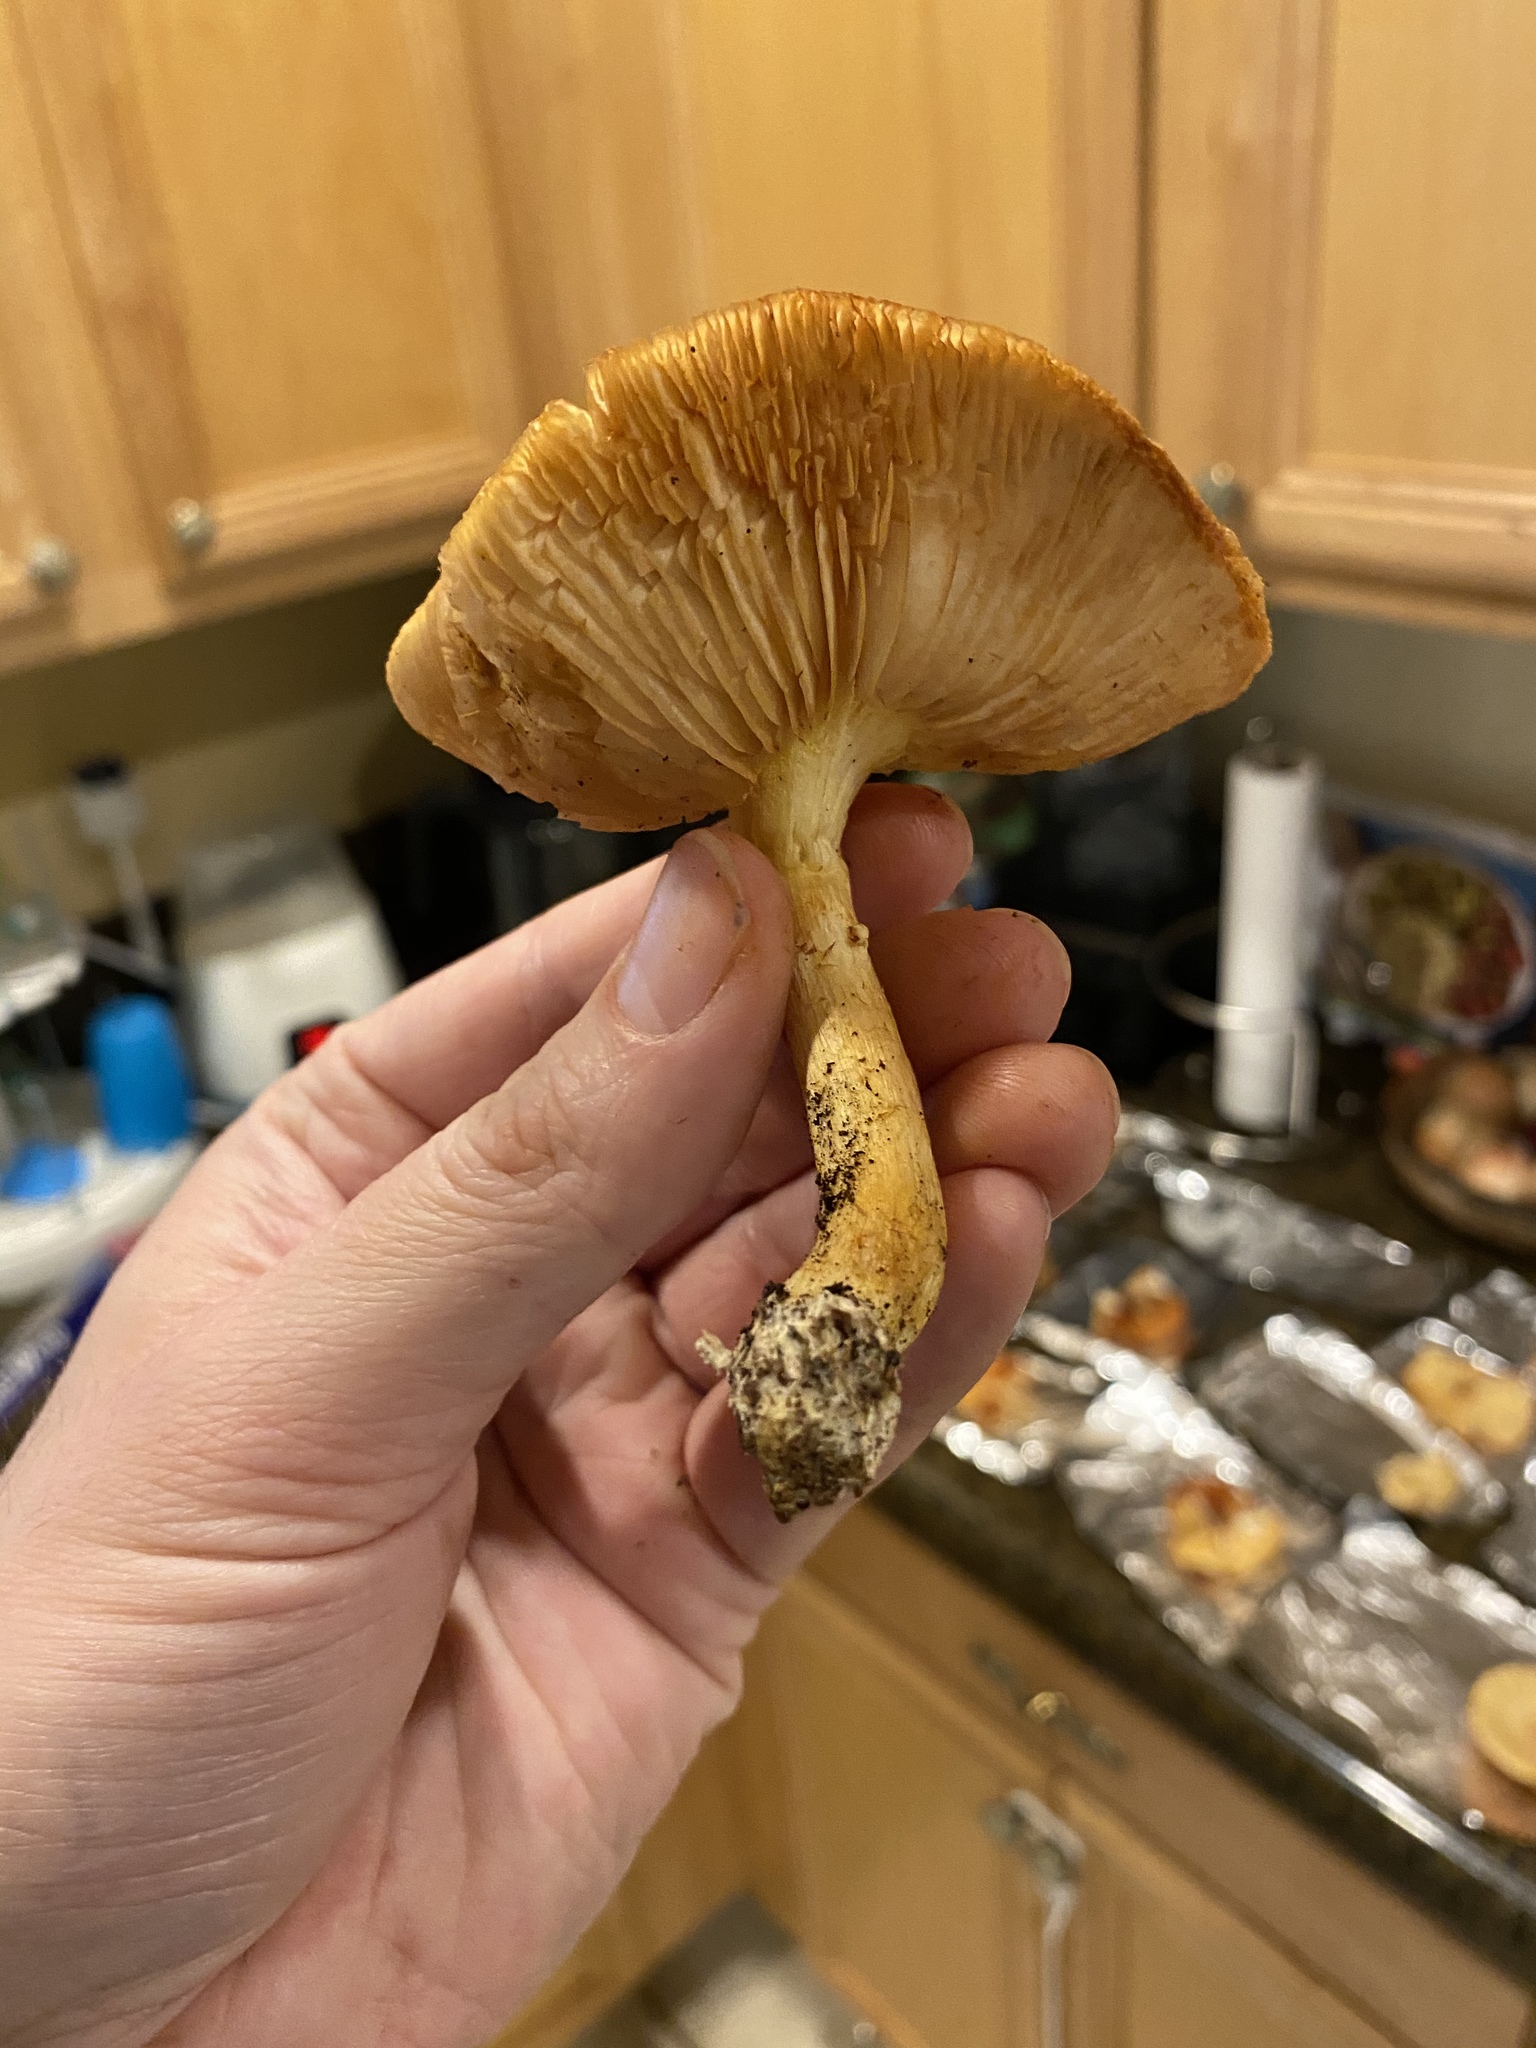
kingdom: Fungi
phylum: Basidiomycota
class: Agaricomycetes
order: Agaricales
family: Hymenogastraceae
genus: Gymnopilus
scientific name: Gymnopilus cyanopalmicola
